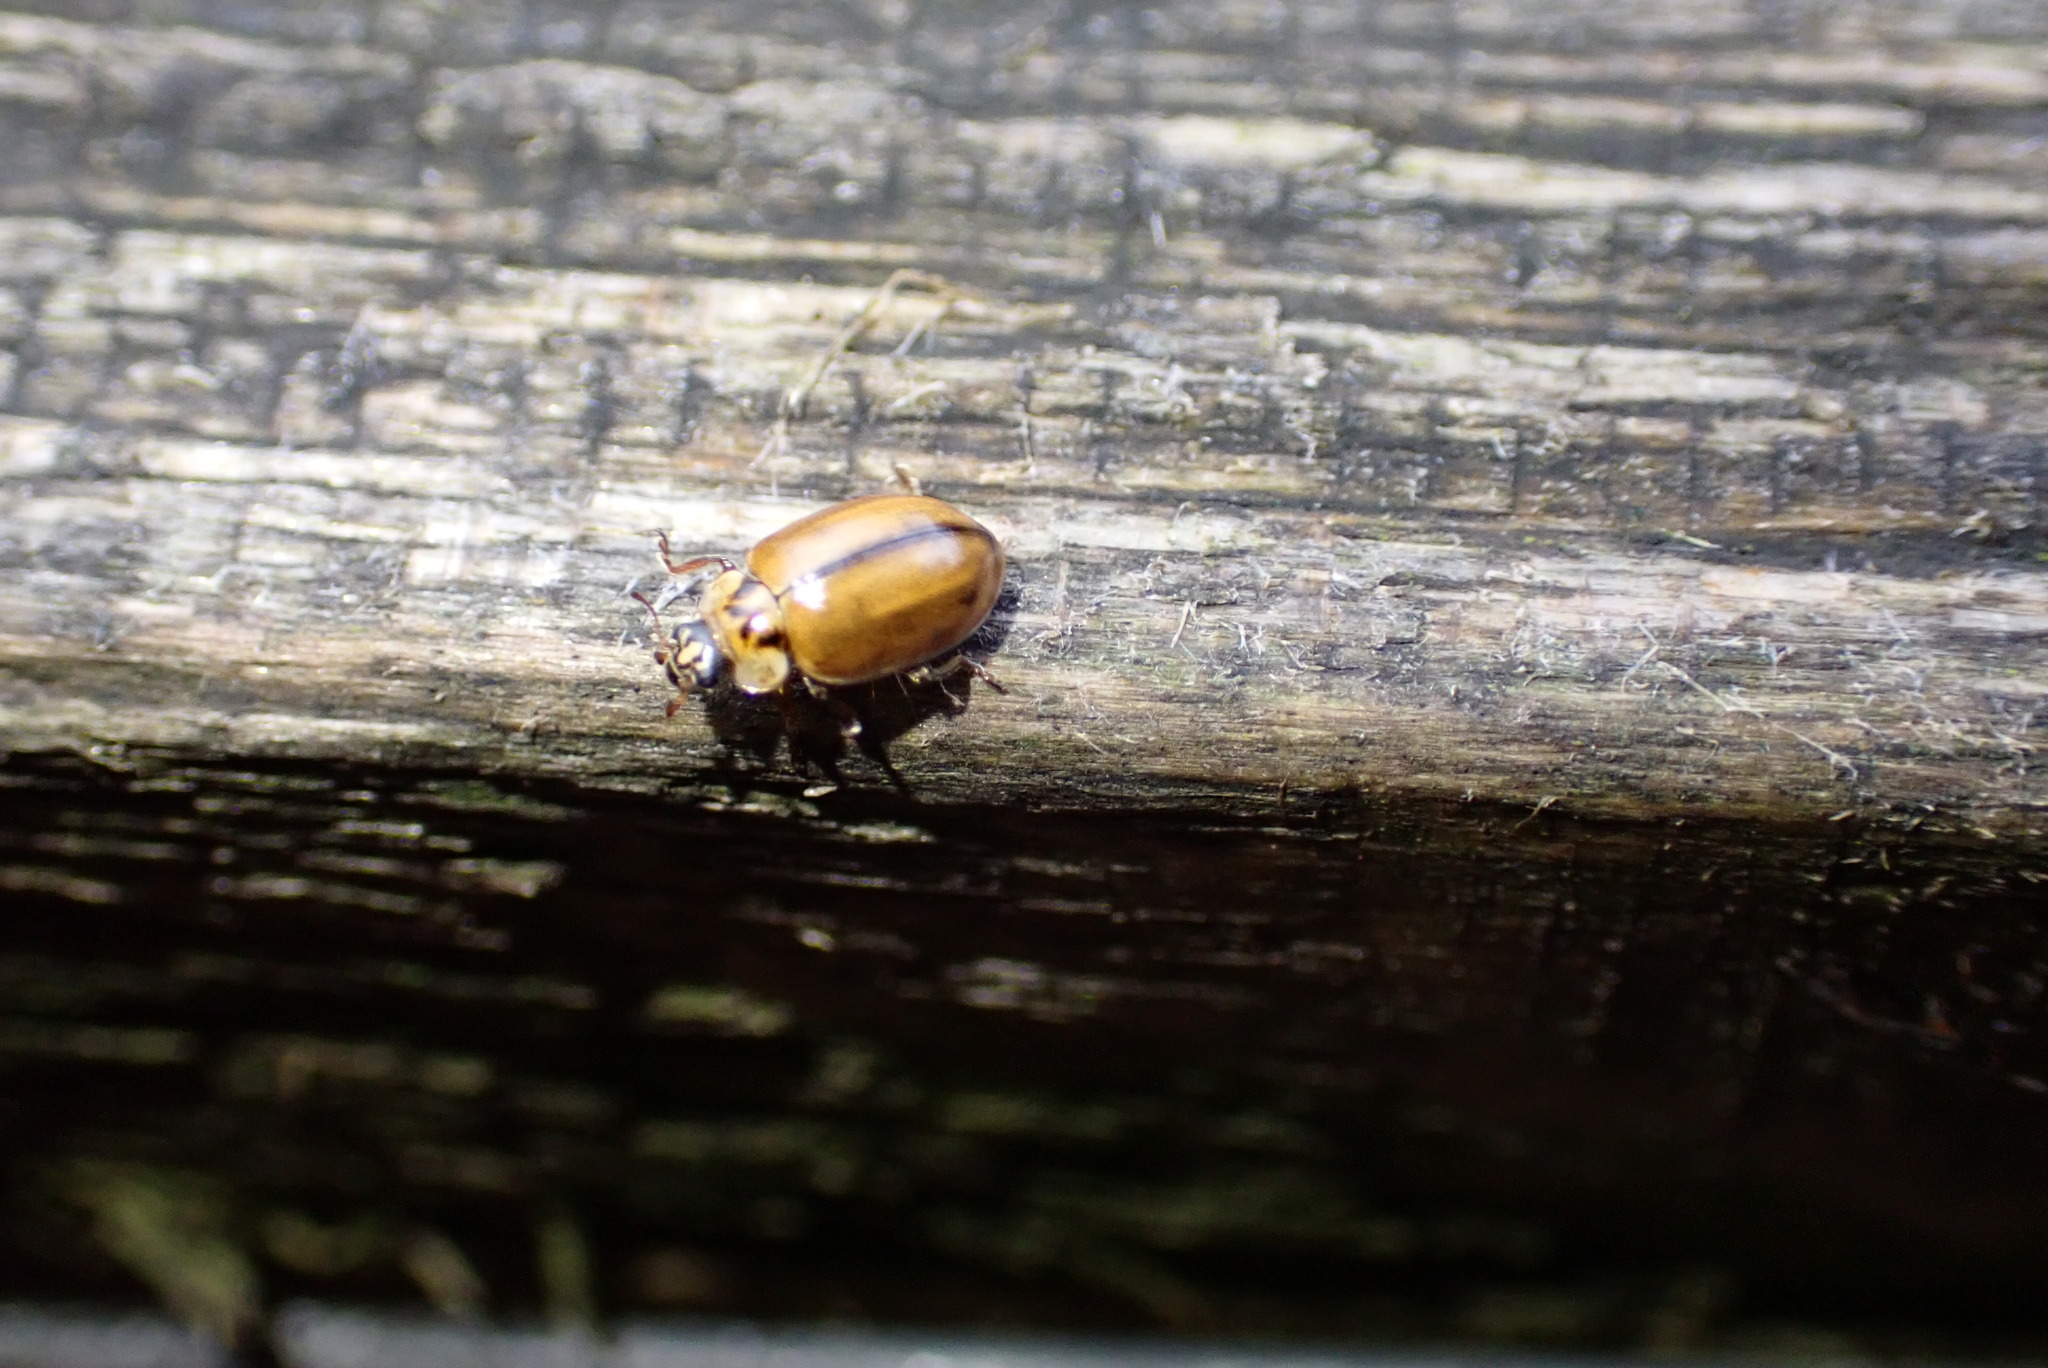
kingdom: Animalia
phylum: Arthropoda
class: Insecta
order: Coleoptera
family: Coccinellidae
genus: Aphidecta
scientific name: Aphidecta obliterata
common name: Larch ladybird
